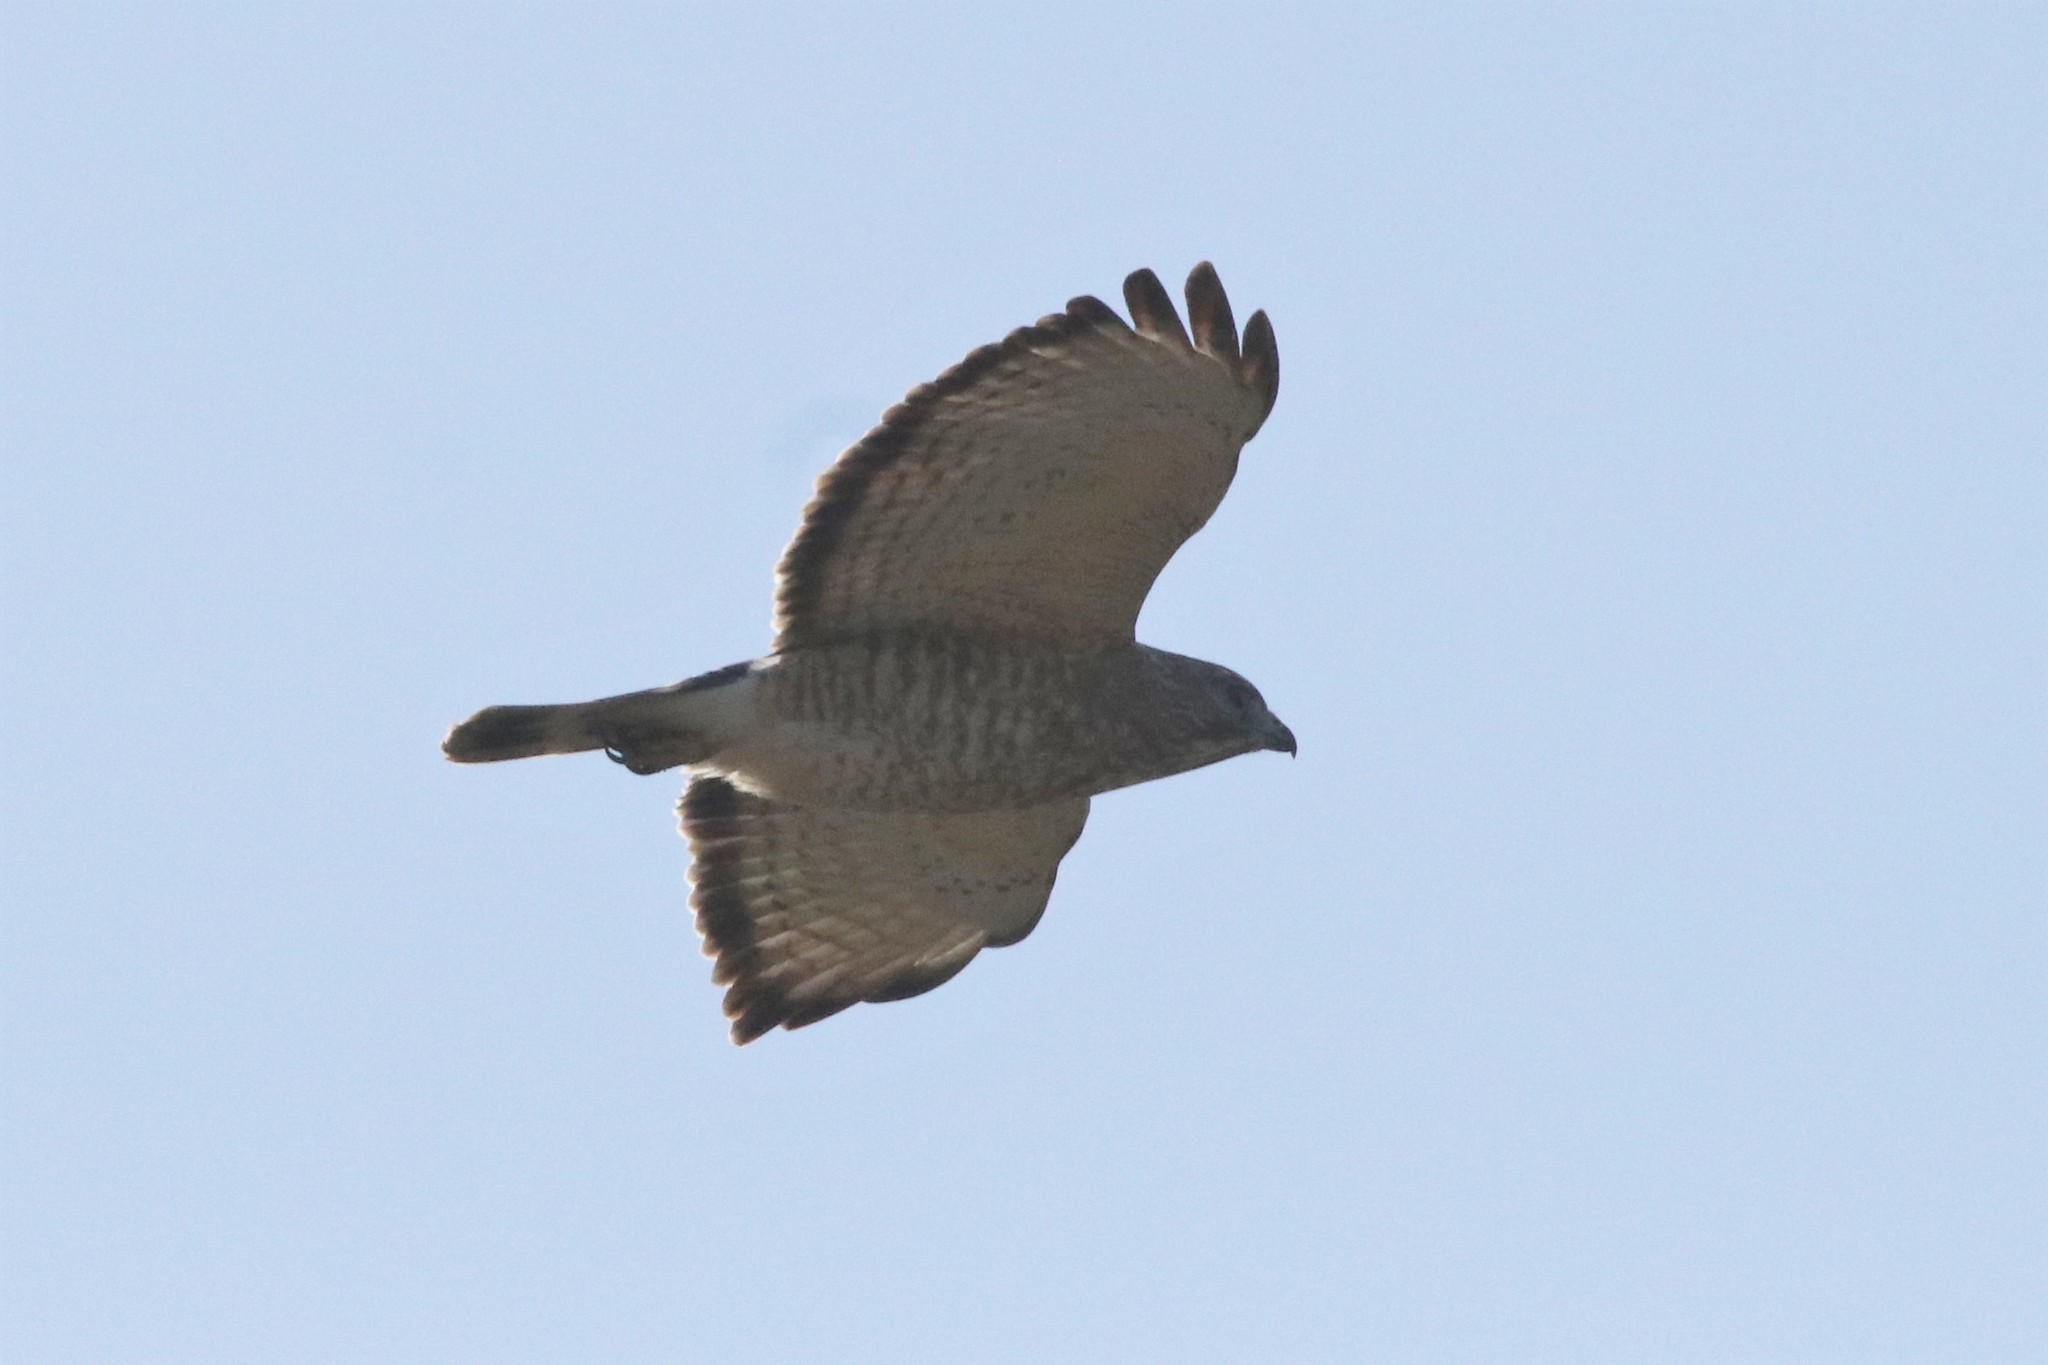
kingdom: Animalia
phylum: Chordata
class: Aves
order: Accipitriformes
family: Accipitridae
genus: Buteo
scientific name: Buteo platypterus
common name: Broad-winged hawk
